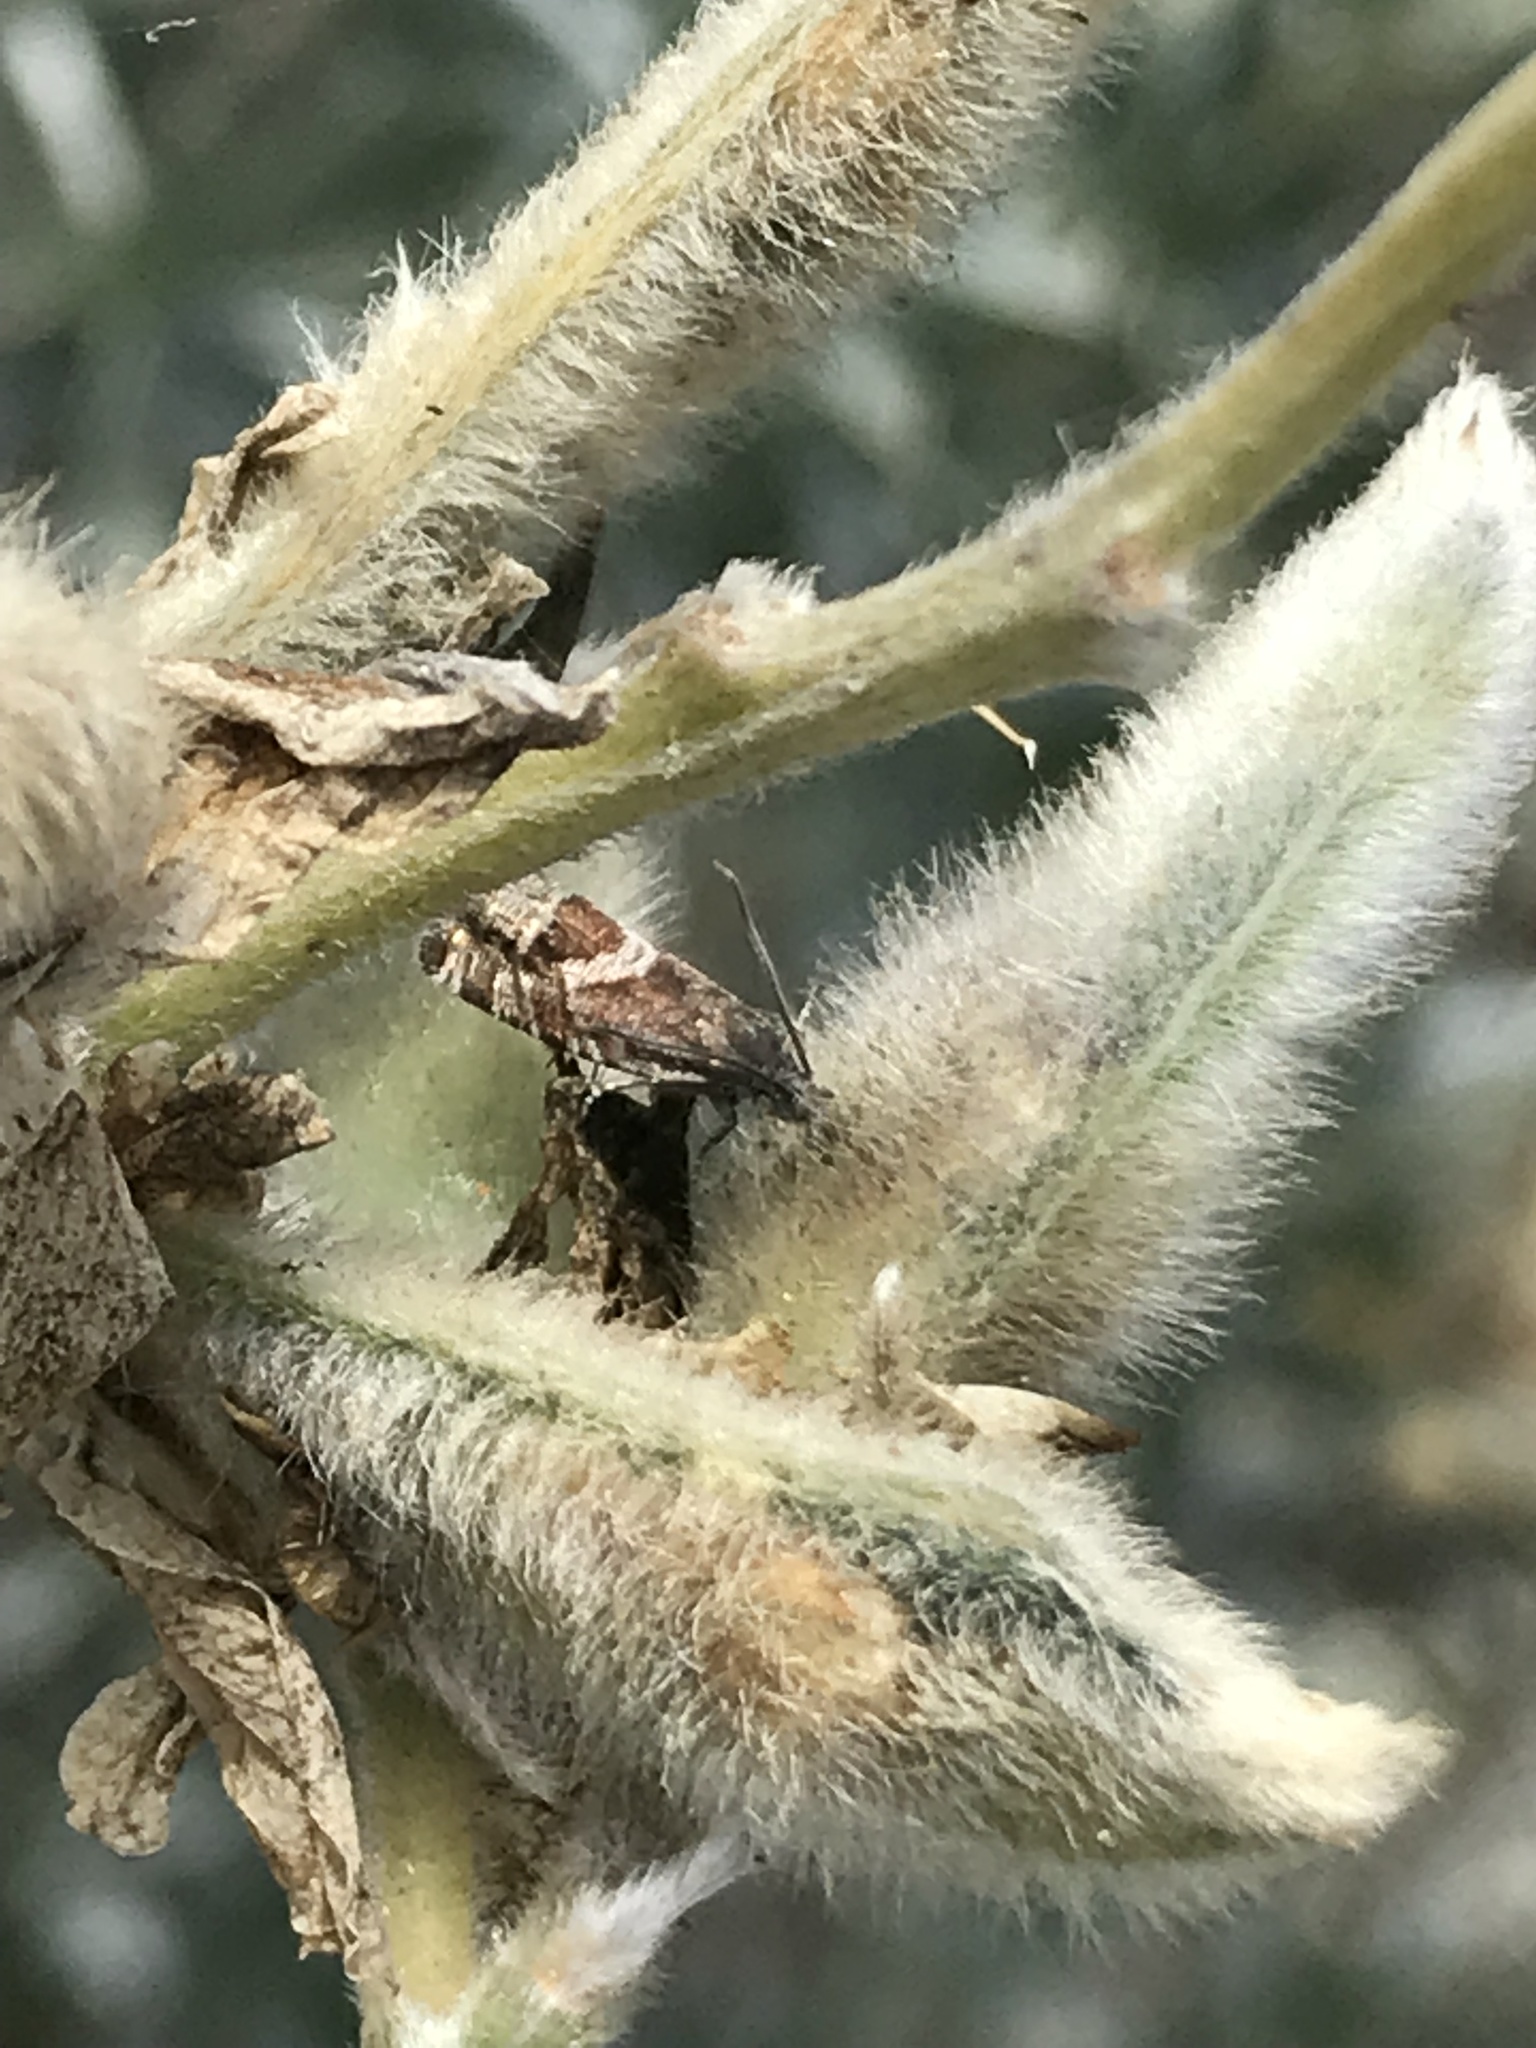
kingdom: Animalia
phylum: Arthropoda
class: Insecta
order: Lepidoptera
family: Tortricidae
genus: Grapholita
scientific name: Grapholita edwardsiana
